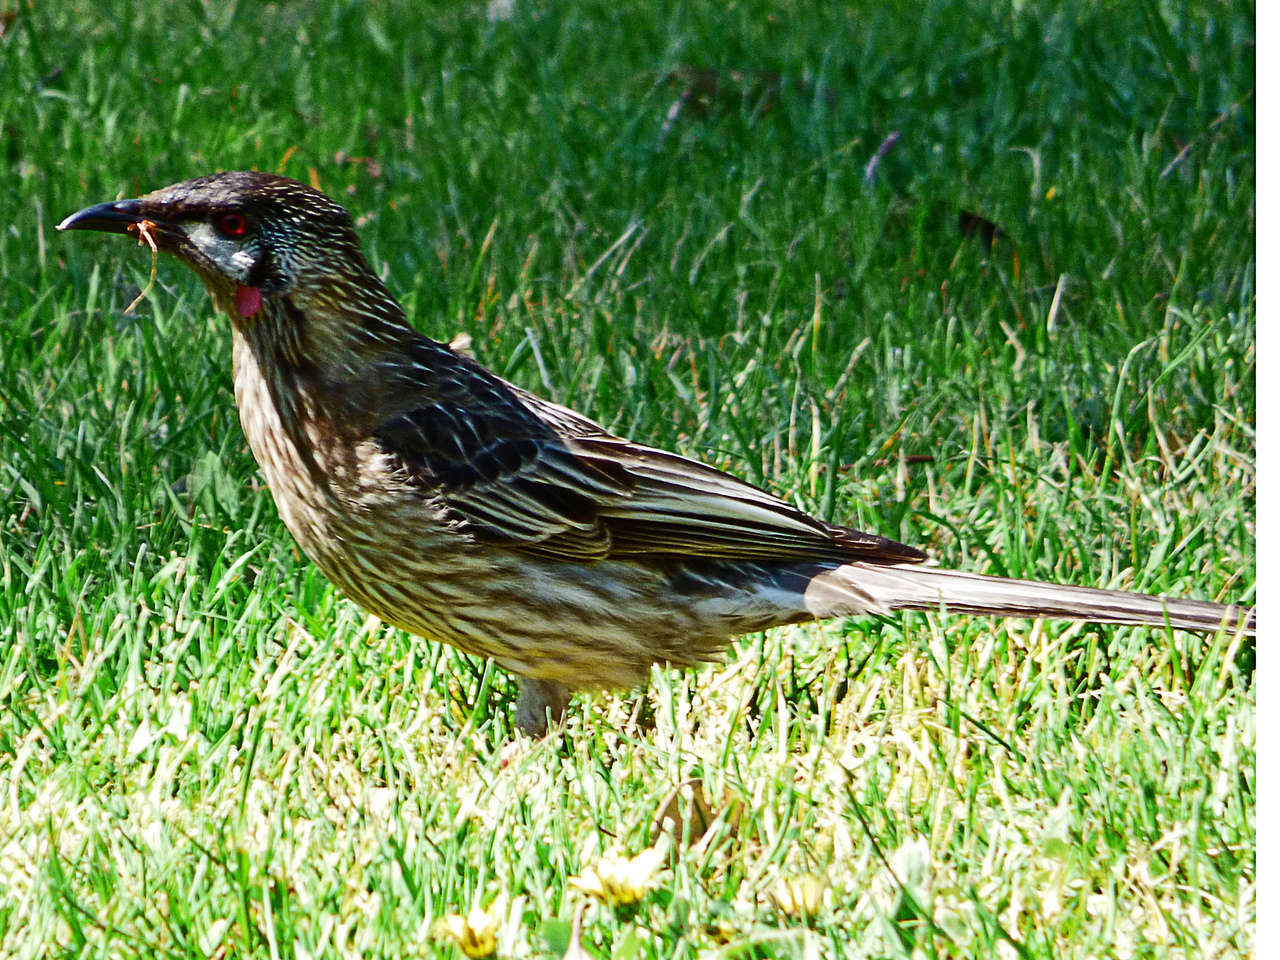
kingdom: Animalia
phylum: Chordata
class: Aves
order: Passeriformes
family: Meliphagidae
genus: Anthochaera
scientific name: Anthochaera carunculata
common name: Red wattlebird
